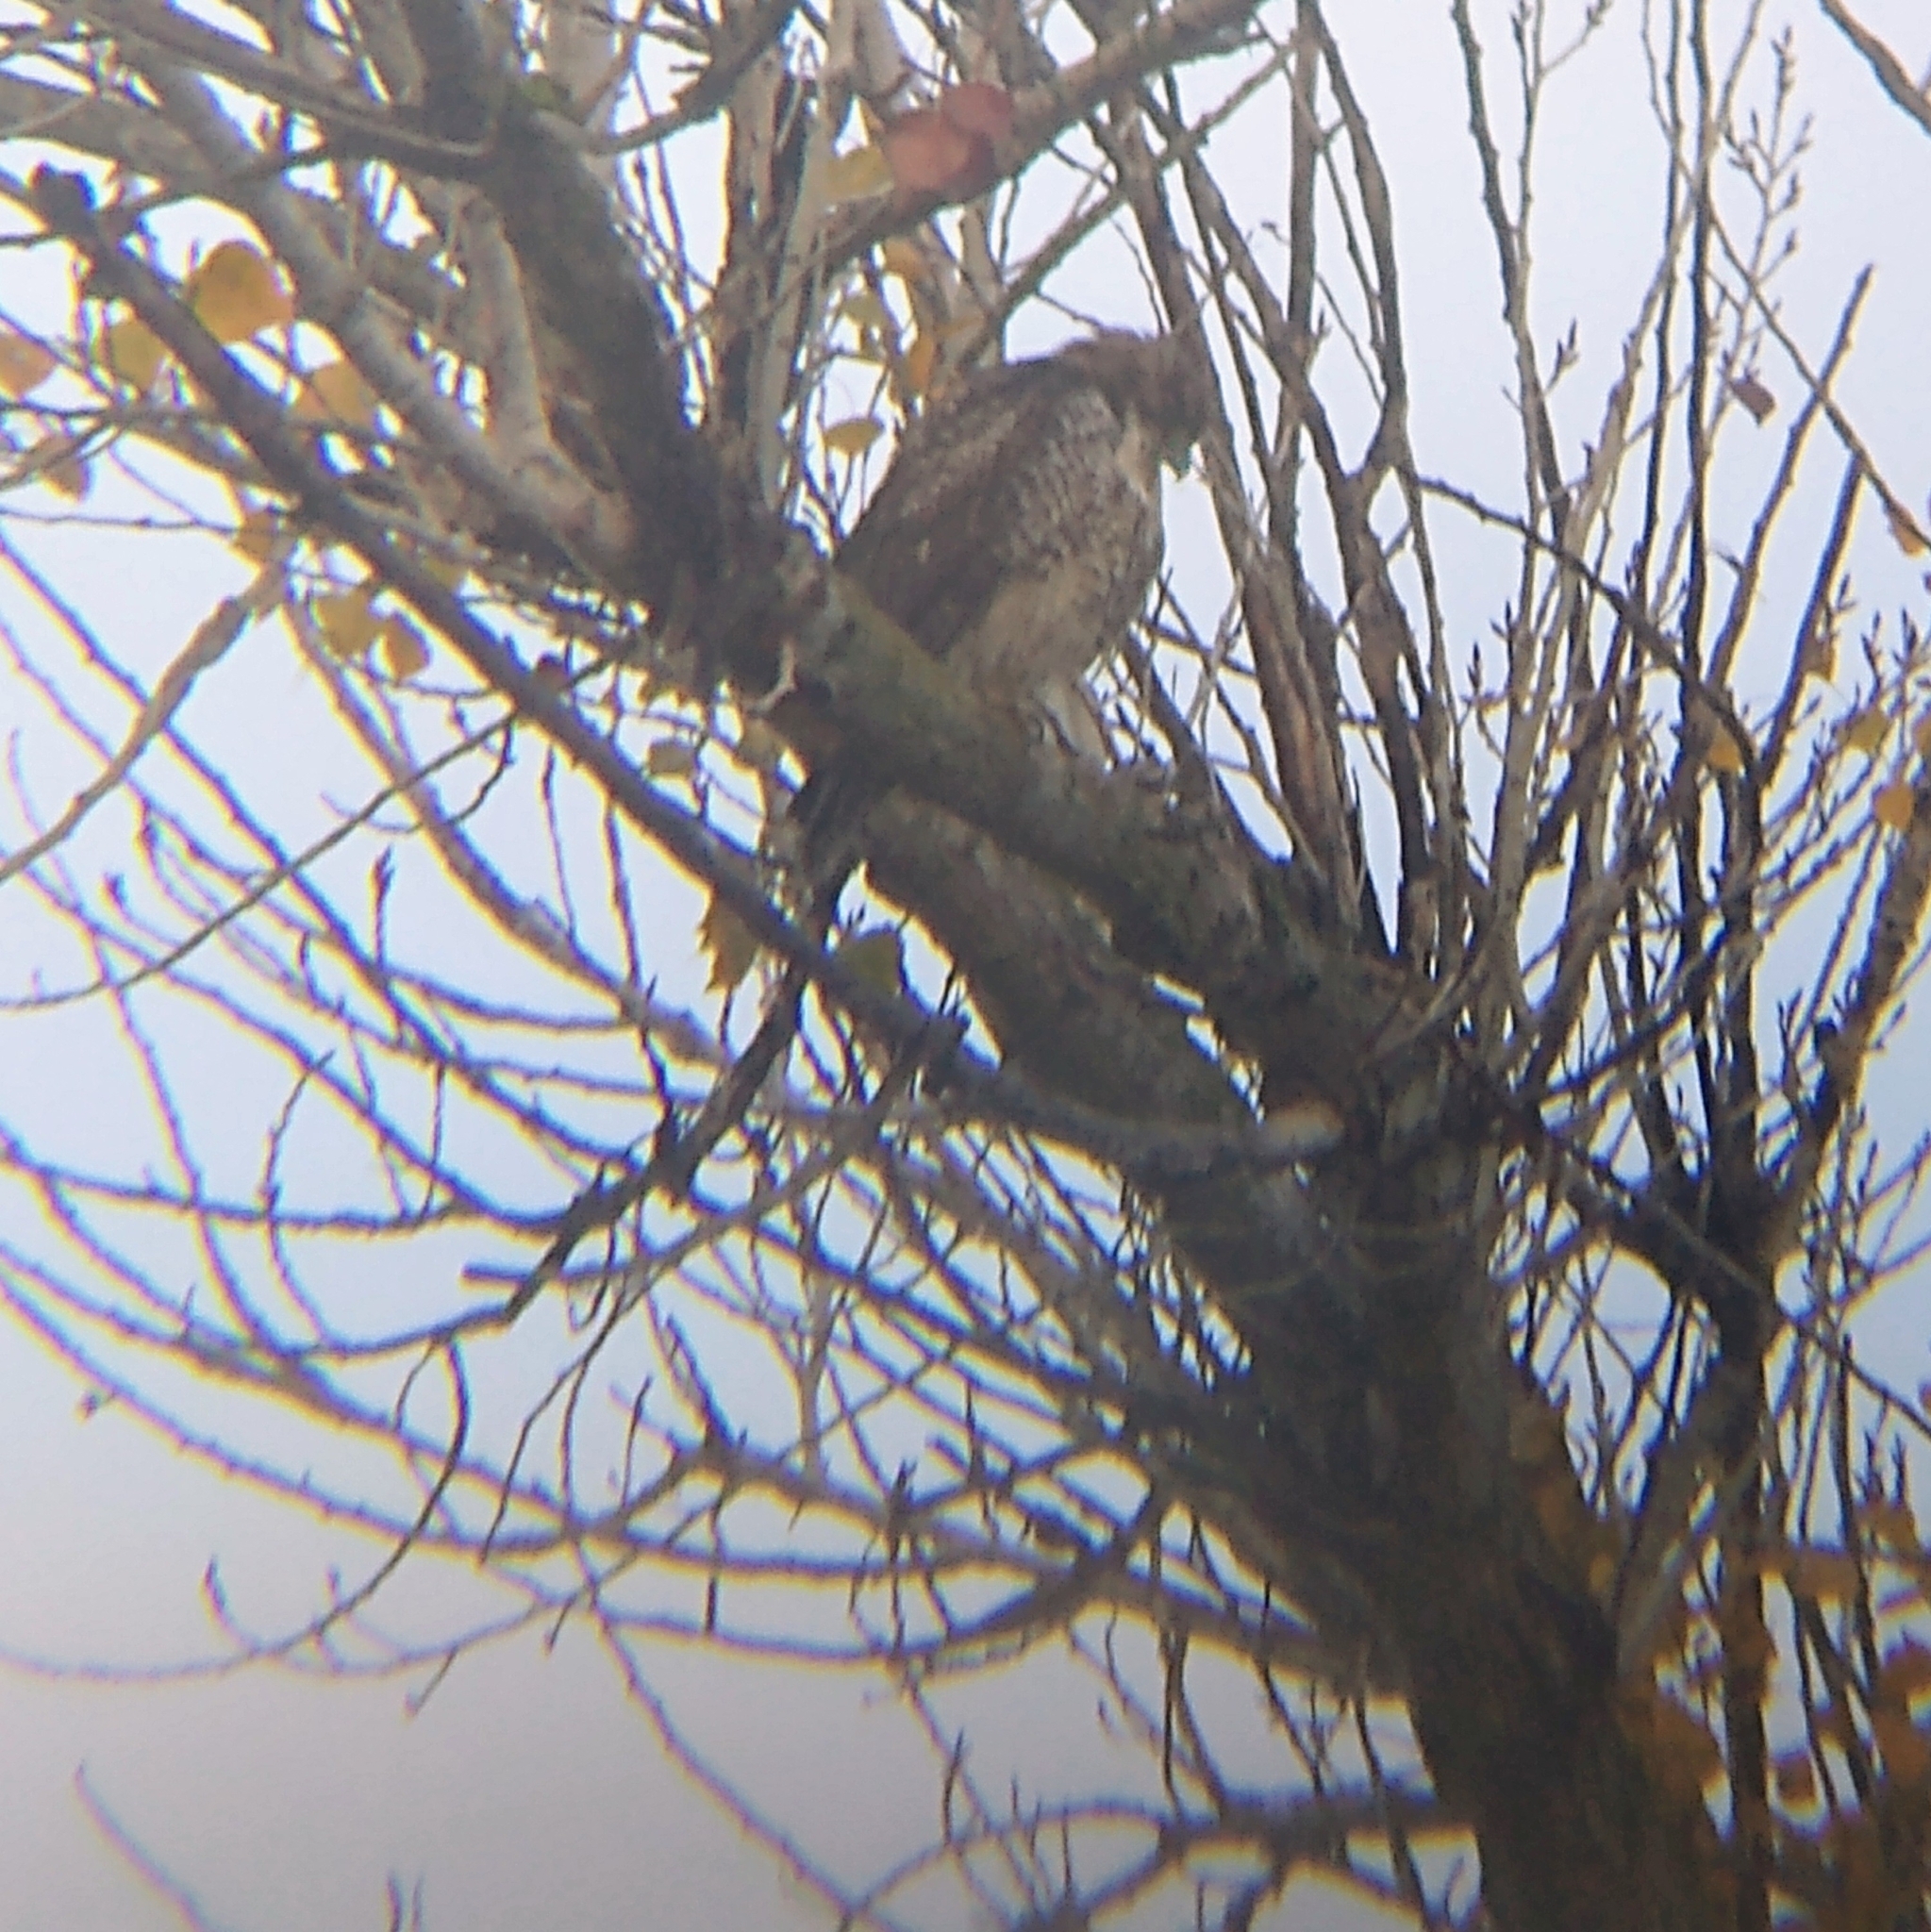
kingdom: Animalia
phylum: Chordata
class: Aves
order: Accipitriformes
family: Accipitridae
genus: Buteo
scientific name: Buteo jamaicensis
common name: Red-tailed hawk
